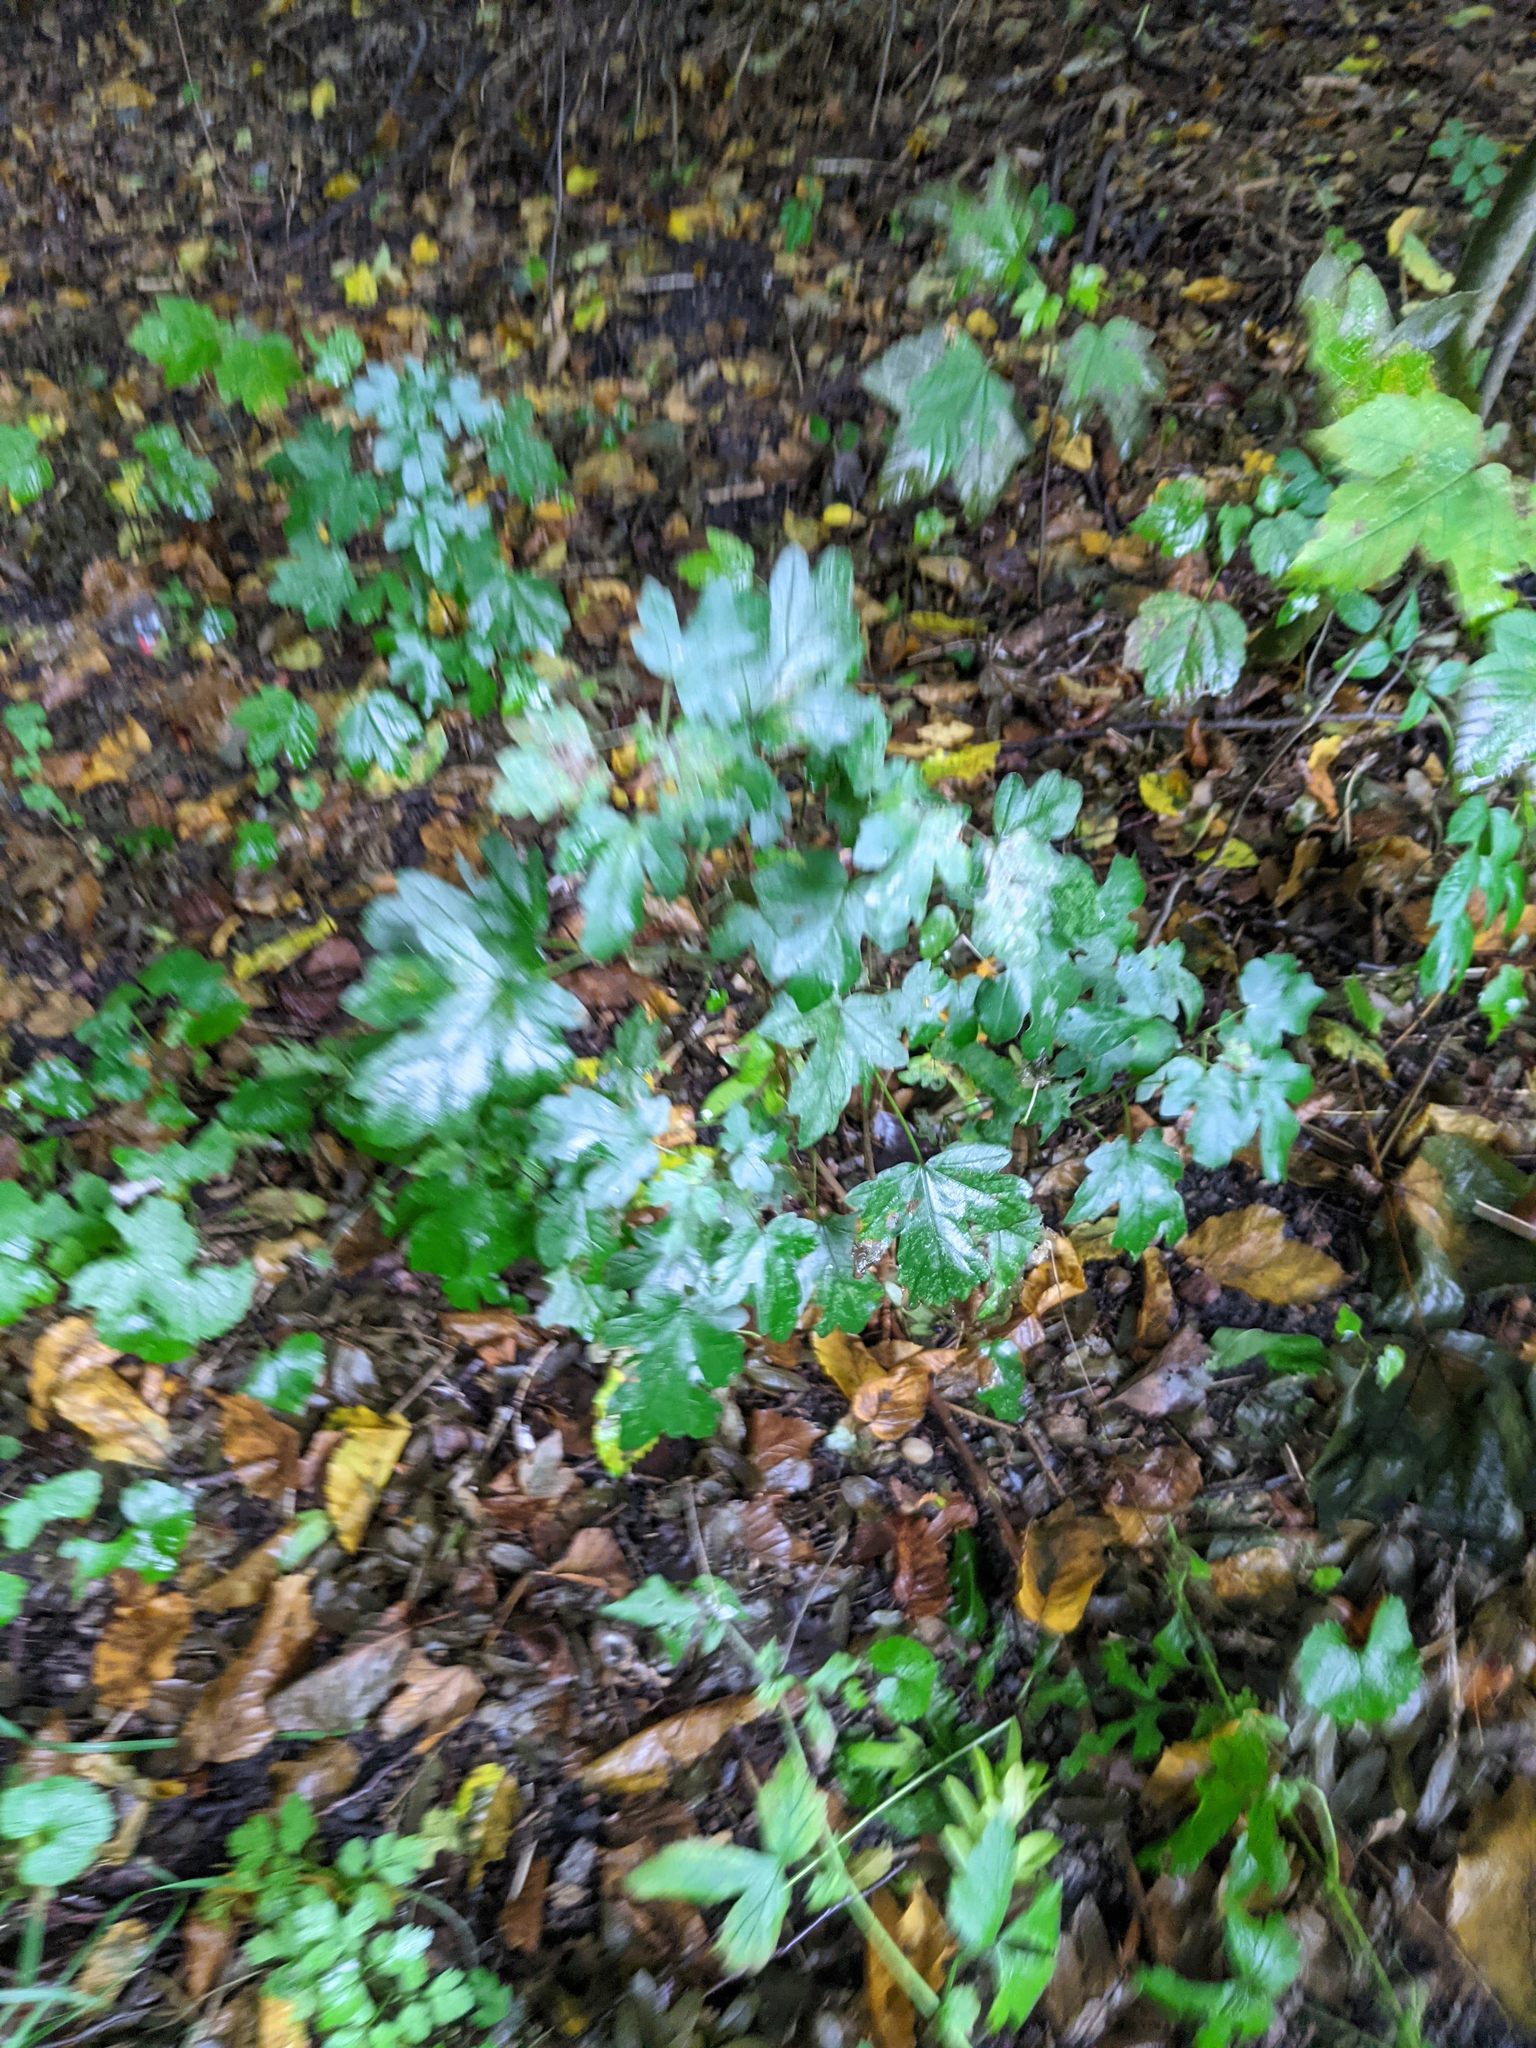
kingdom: Plantae
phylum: Tracheophyta
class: Magnoliopsida
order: Sapindales
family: Sapindaceae
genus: Acer
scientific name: Acer campestre
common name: Field maple
